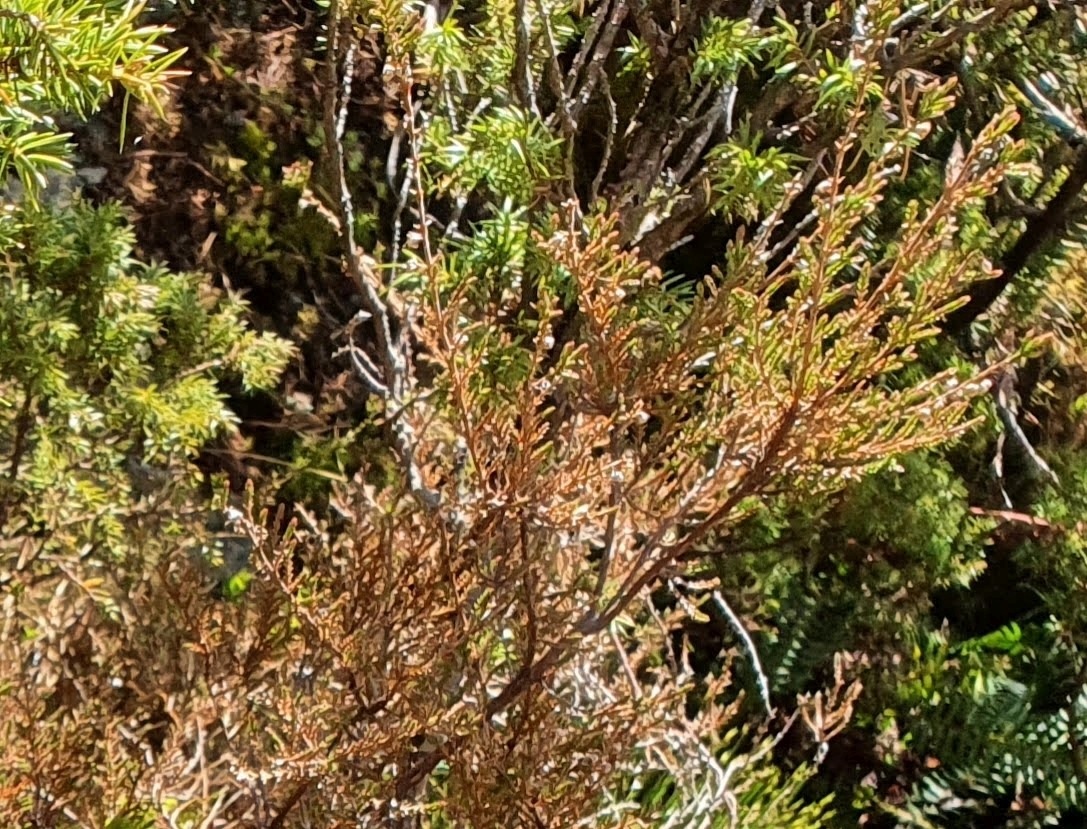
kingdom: Plantae
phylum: Tracheophyta
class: Magnoliopsida
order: Ericales
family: Ericaceae
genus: Calluna
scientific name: Calluna vulgaris
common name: Heather
